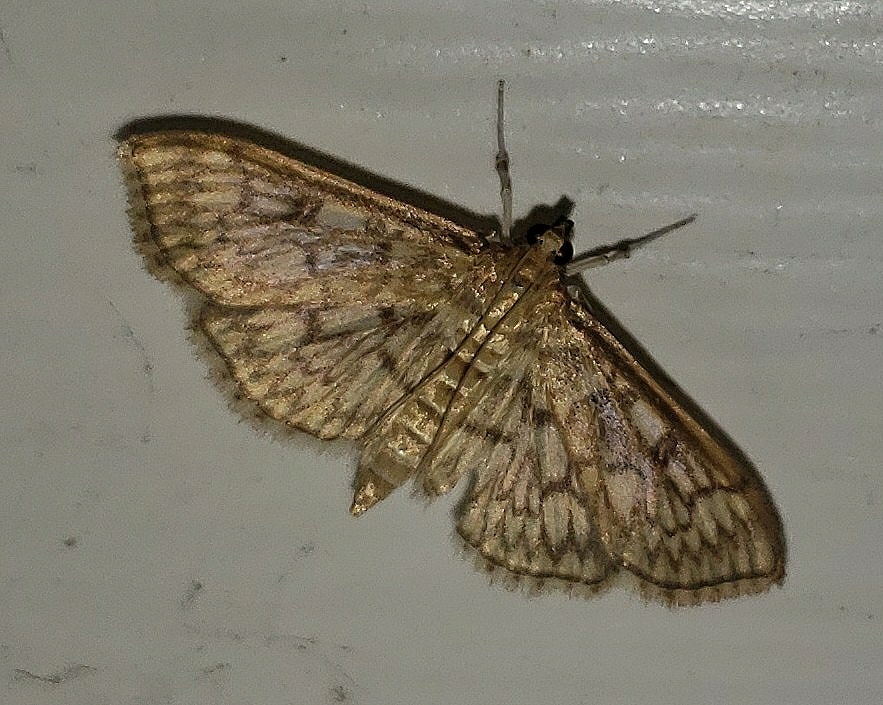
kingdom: Animalia
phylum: Arthropoda
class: Insecta
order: Lepidoptera
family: Crambidae
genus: Herpetogramma
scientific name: Herpetogramma pertextalis
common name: Bold-feathered grass moth
